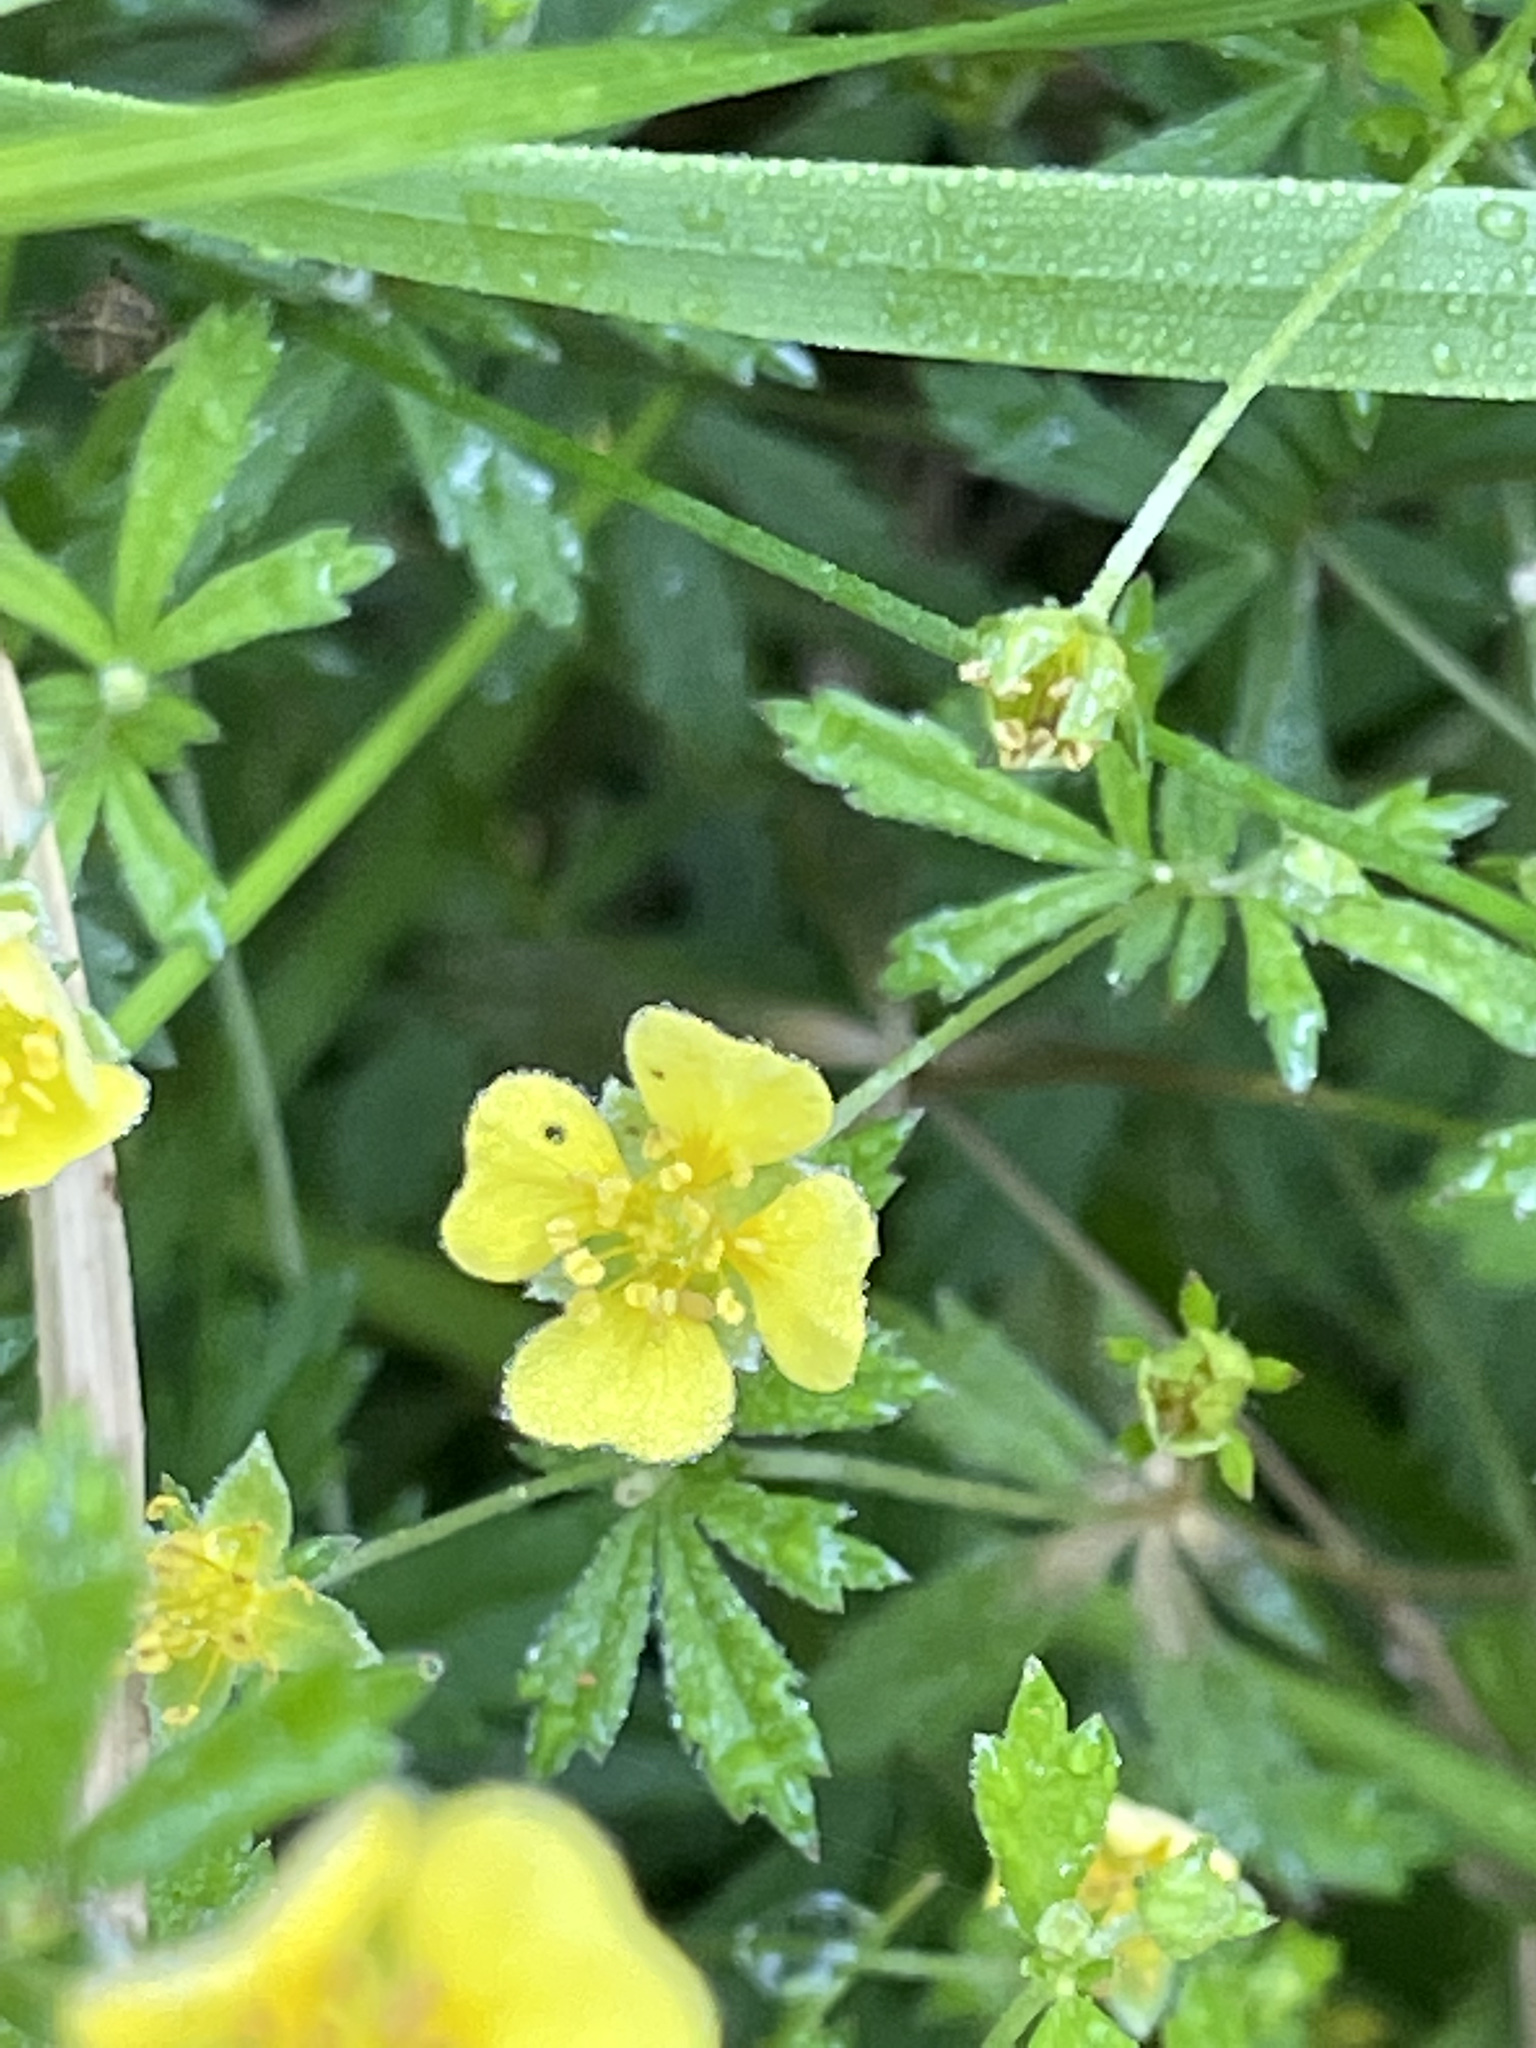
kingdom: Plantae
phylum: Tracheophyta
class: Magnoliopsida
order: Rosales
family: Rosaceae
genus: Potentilla
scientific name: Potentilla erecta
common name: Tormentil
